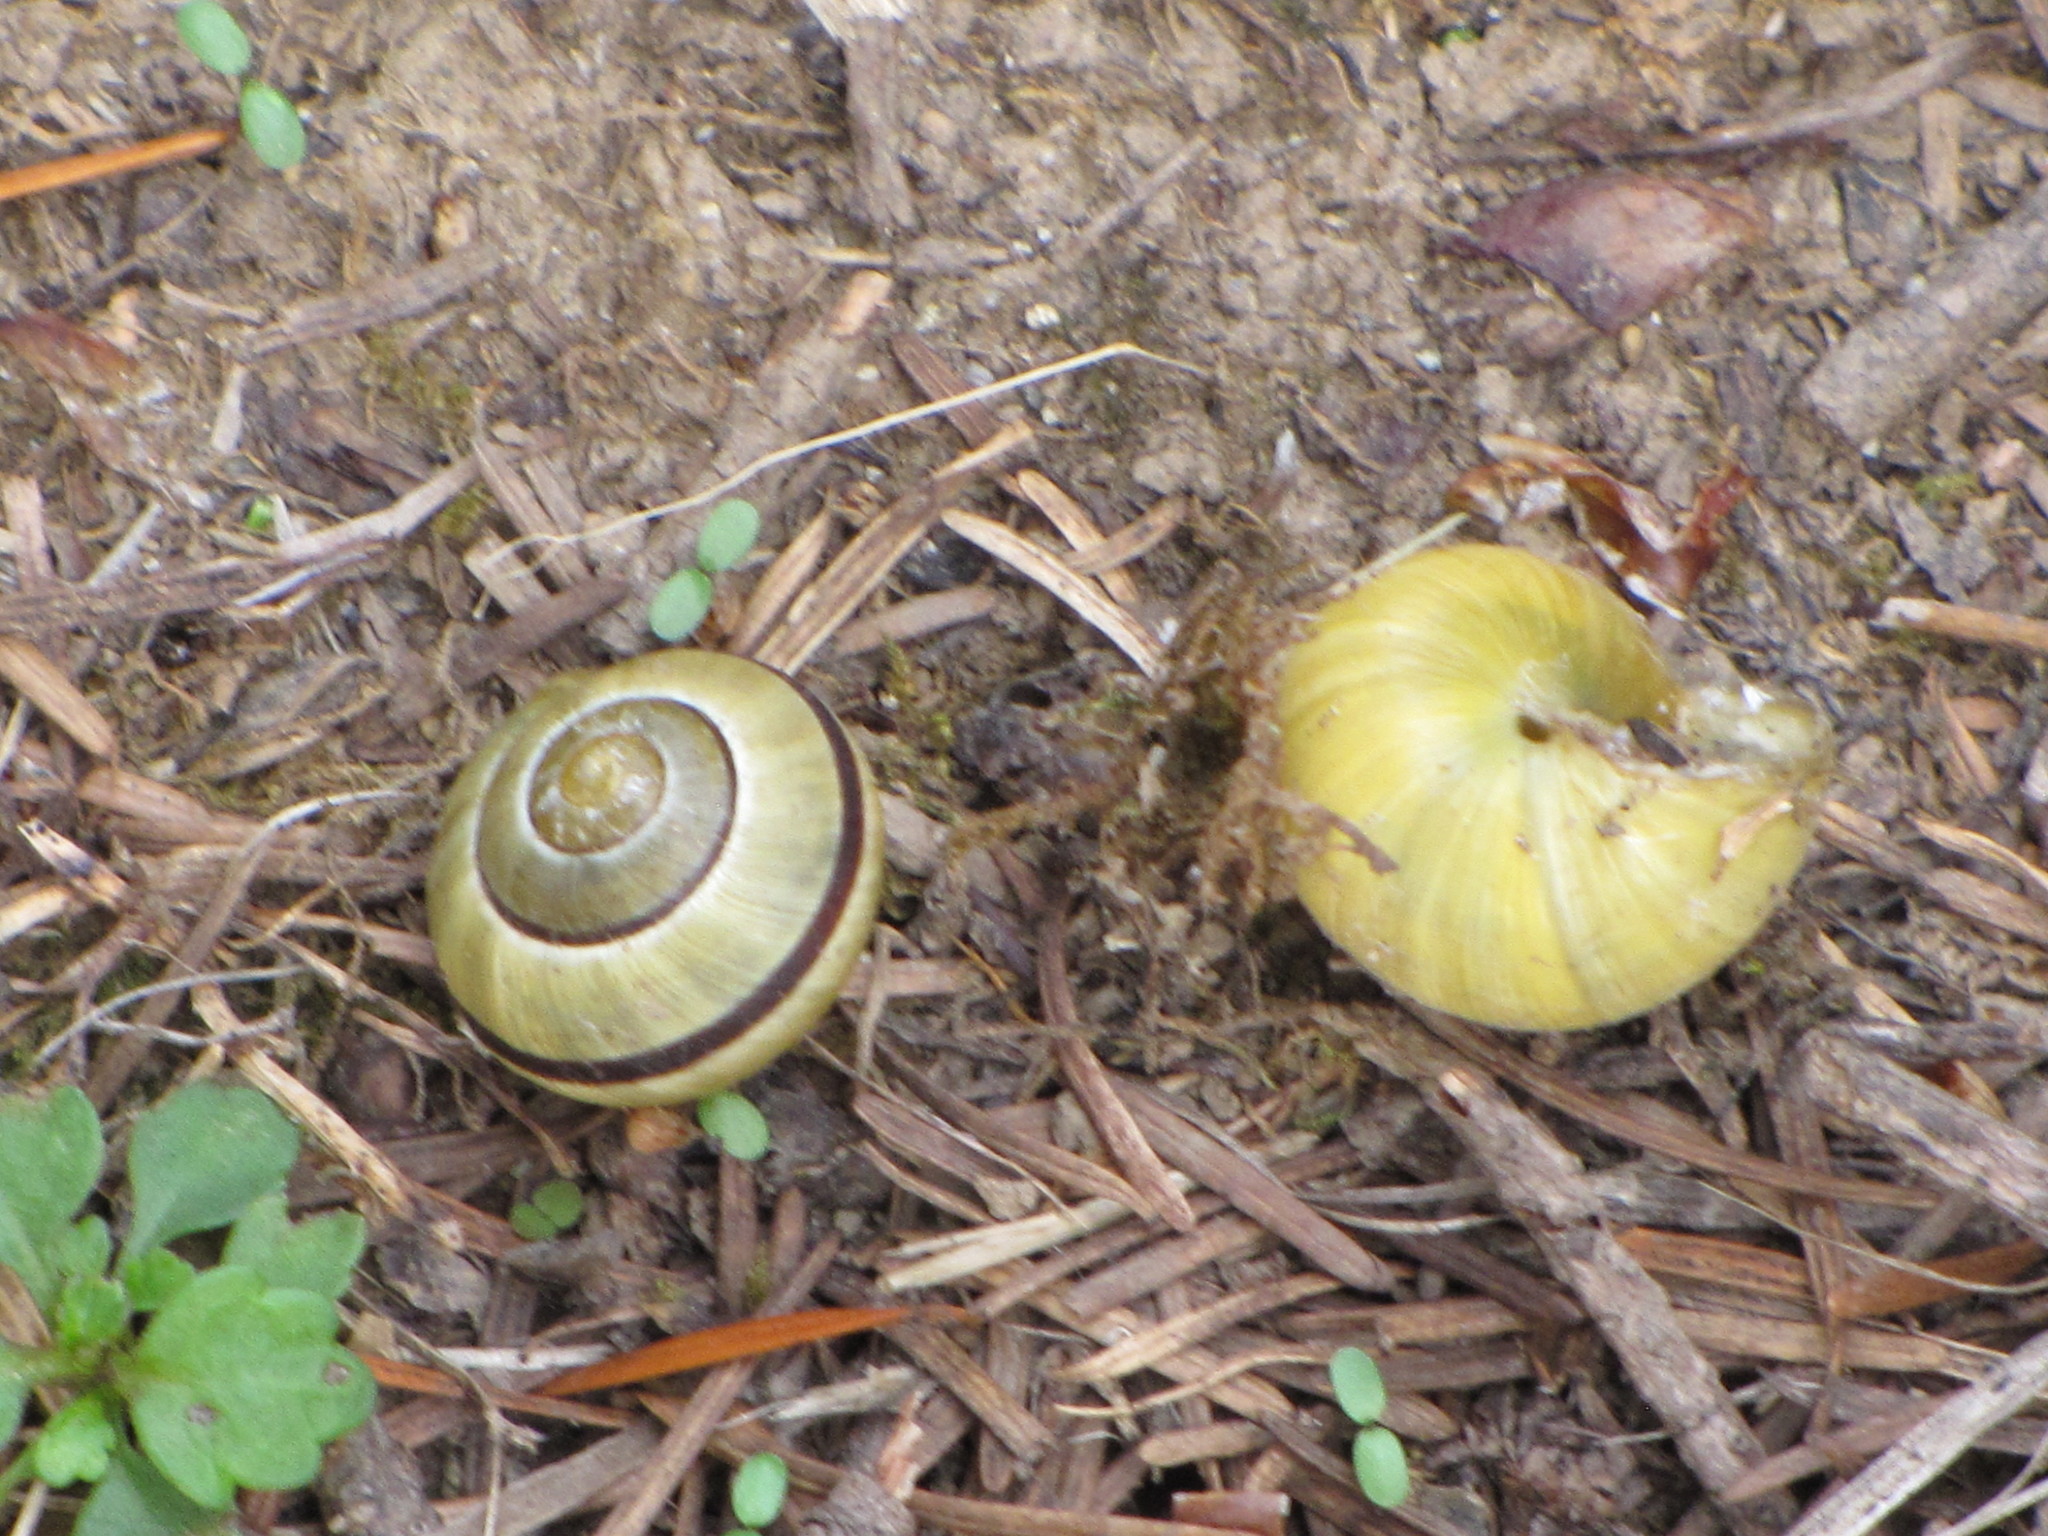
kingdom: Animalia
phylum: Mollusca
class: Gastropoda
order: Stylommatophora
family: Helicidae
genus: Cepaea
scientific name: Cepaea nemoralis
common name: Grovesnail
